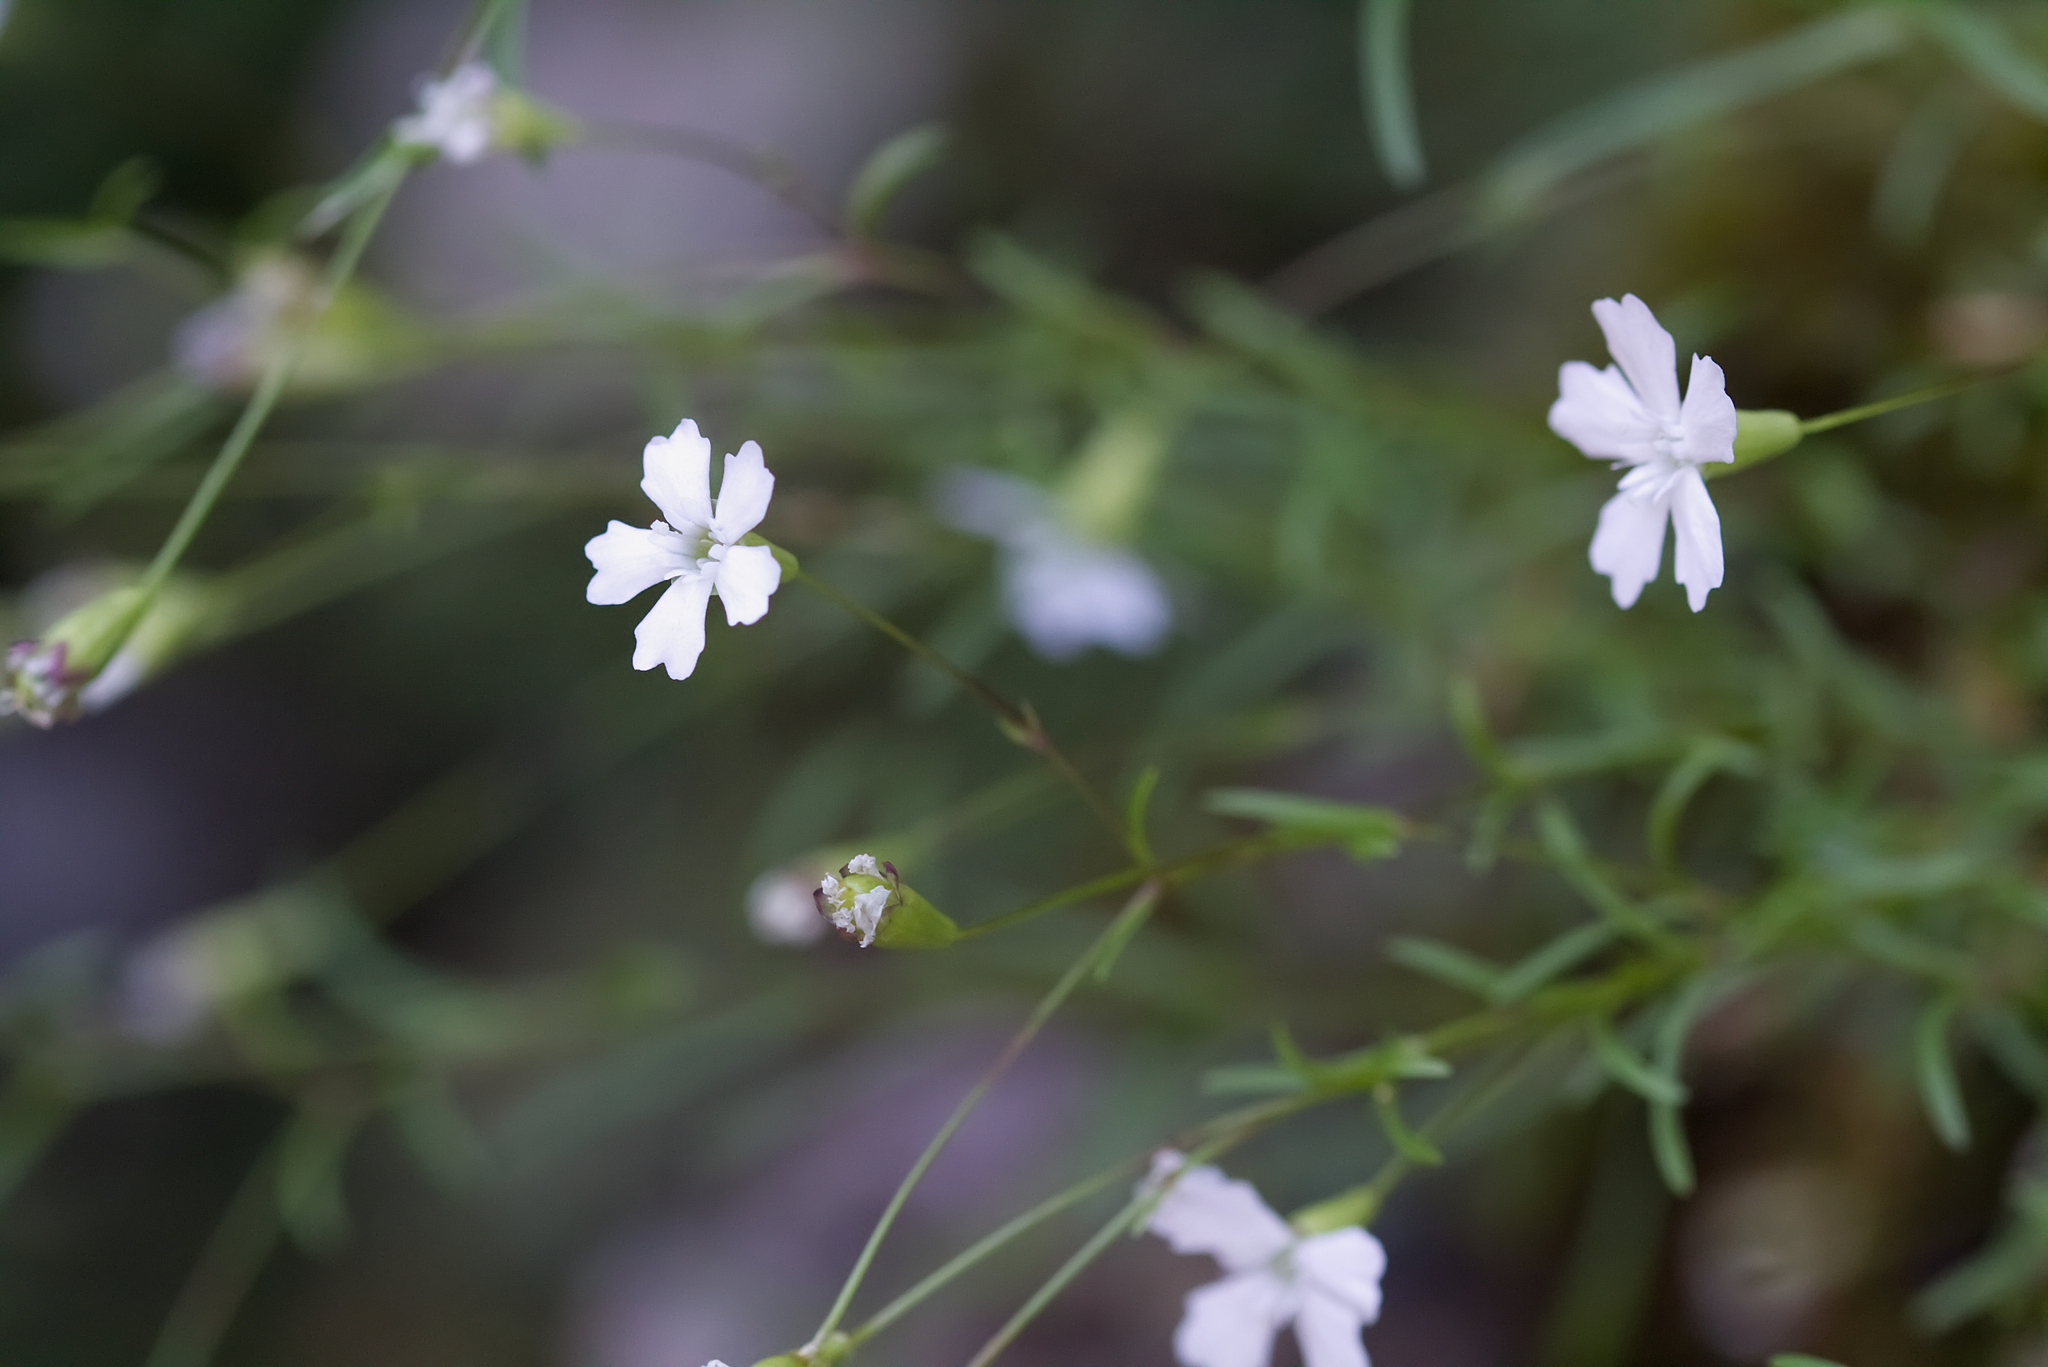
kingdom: Plantae
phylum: Tracheophyta
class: Magnoliopsida
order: Caryophyllales
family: Caryophyllaceae
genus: Heliosperma
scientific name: Heliosperma pusillum
